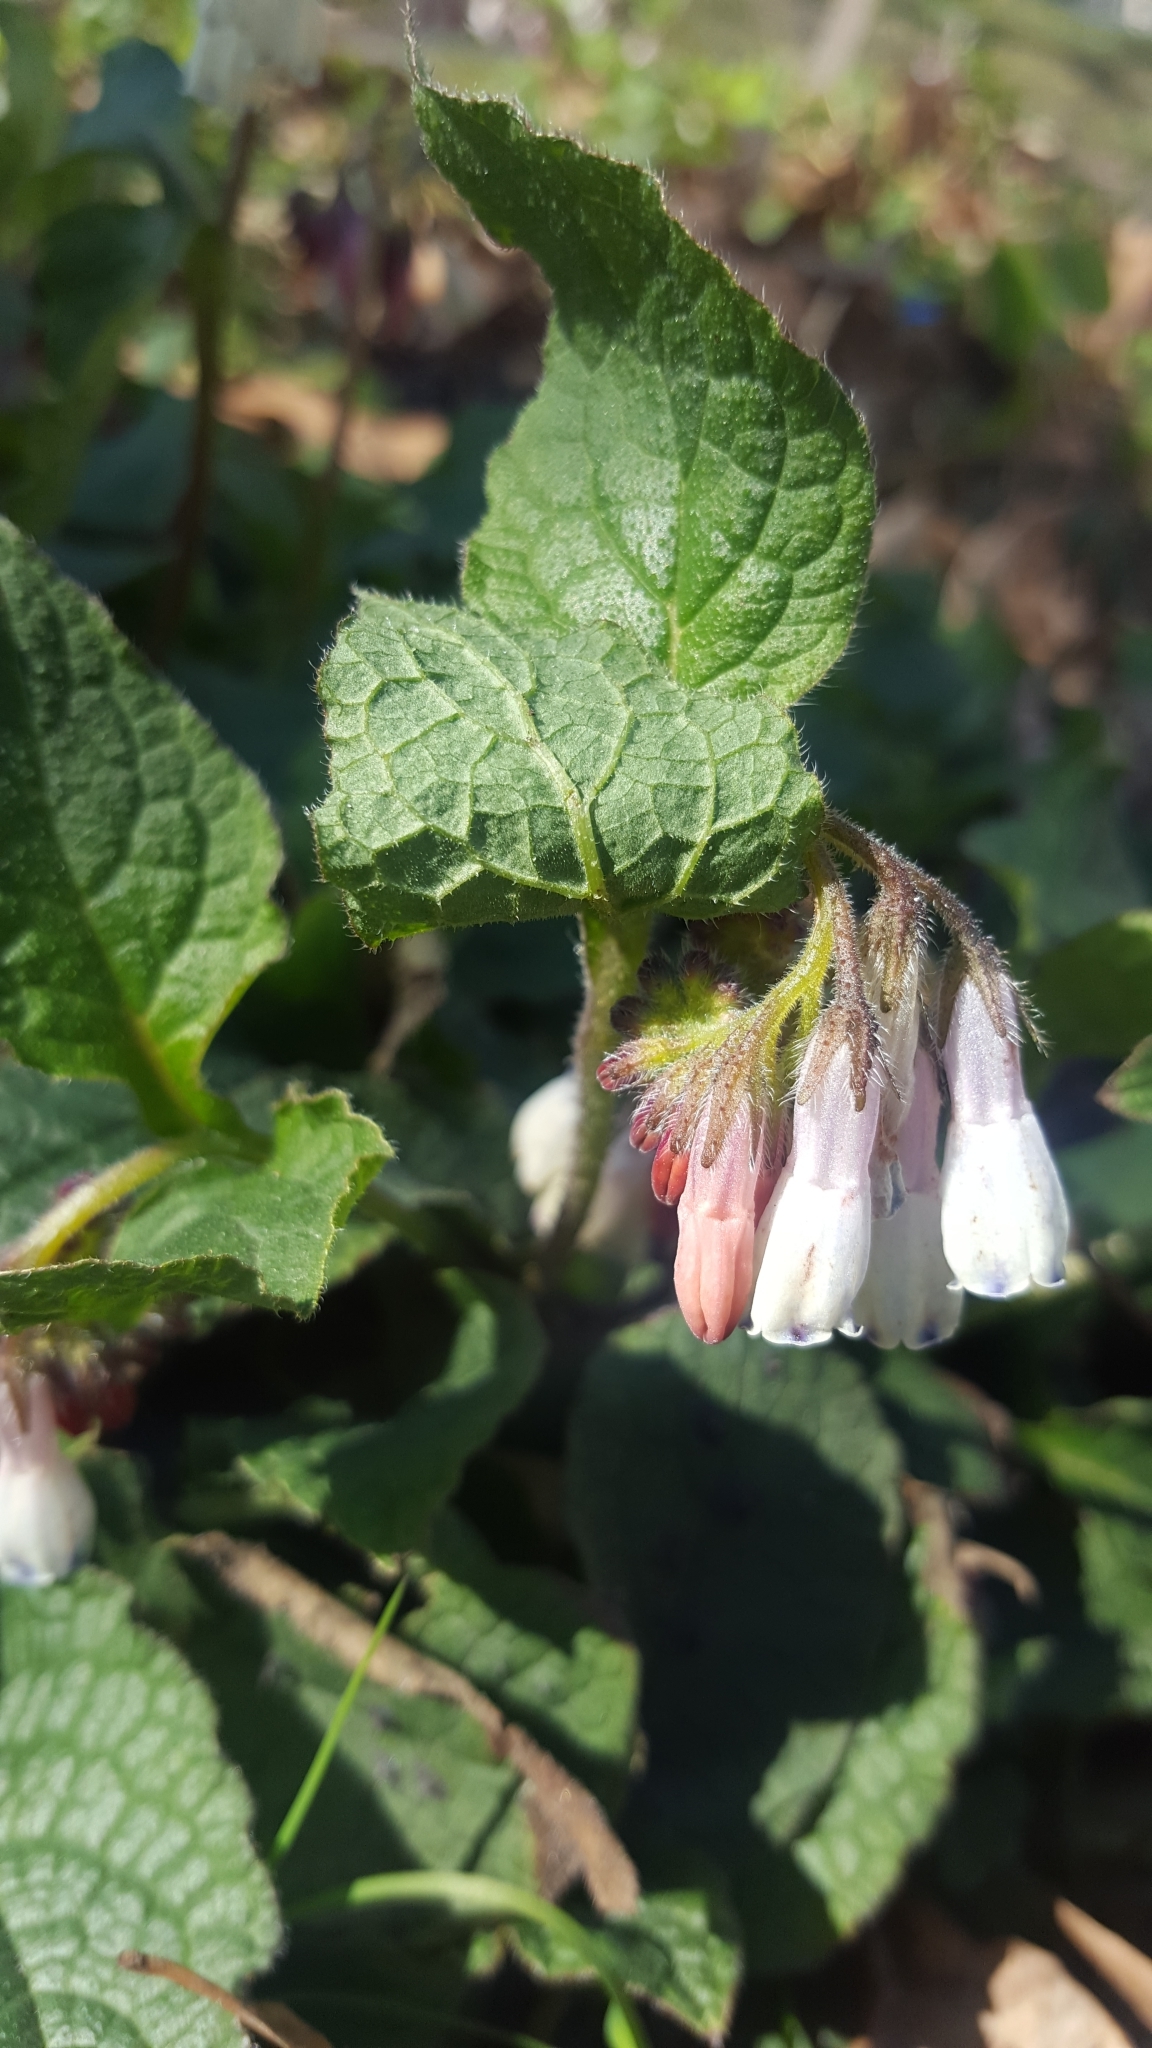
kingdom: Plantae
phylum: Tracheophyta
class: Magnoliopsida
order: Boraginales
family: Boraginaceae
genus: Symphytum
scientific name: Symphytum officinale
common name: Common comfrey
